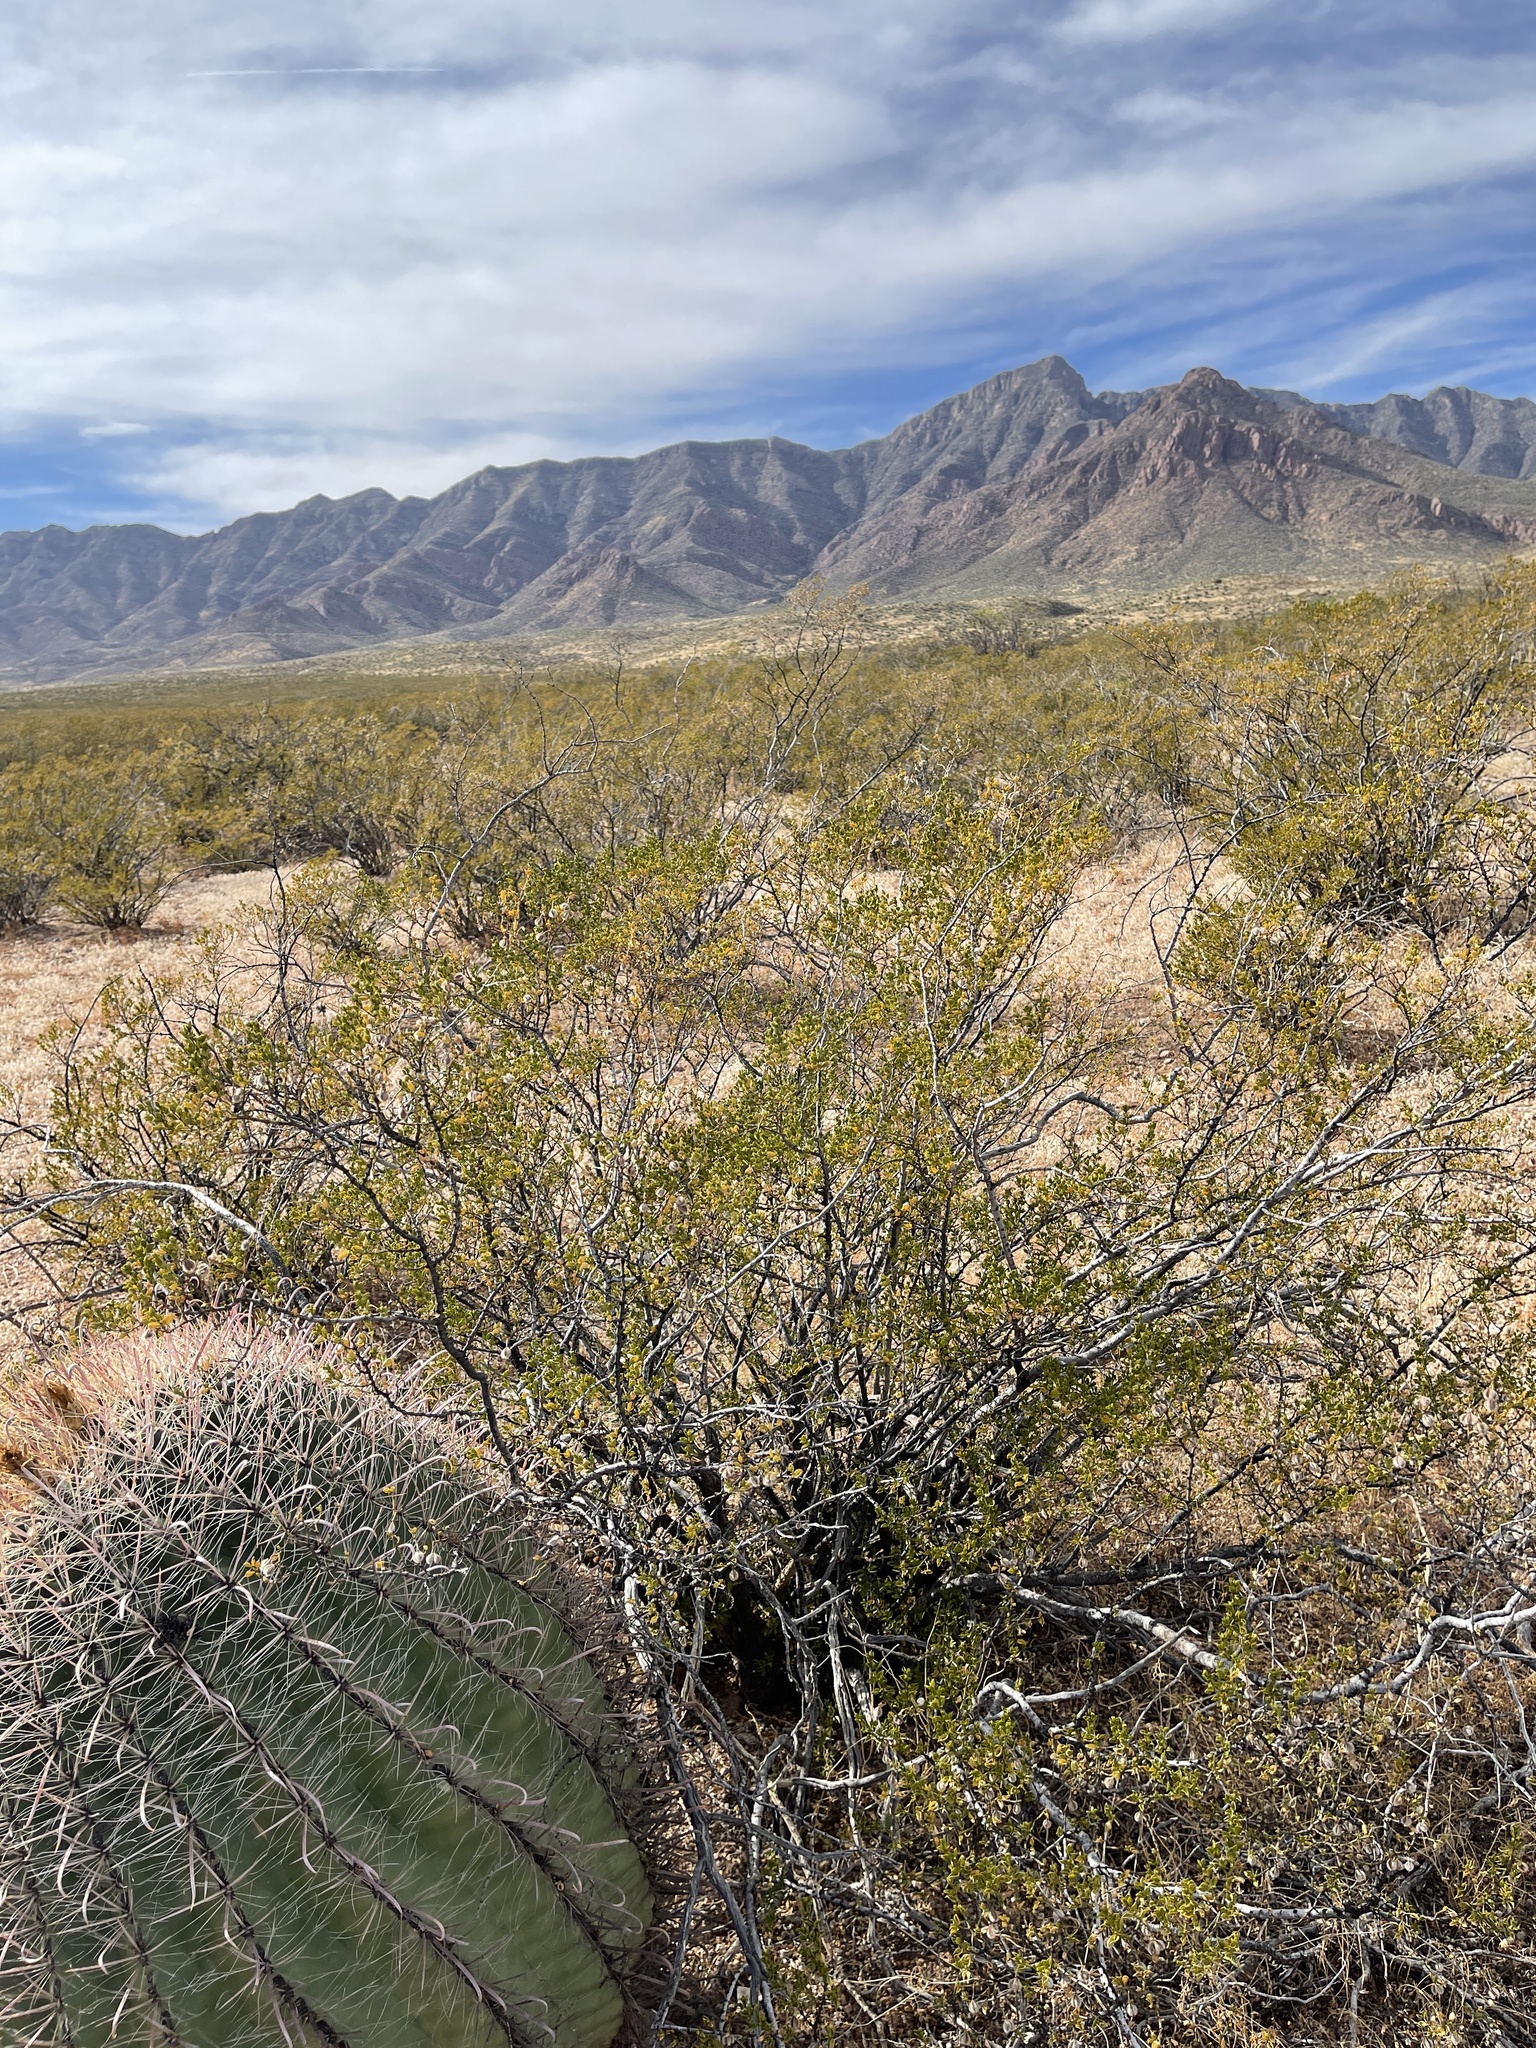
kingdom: Plantae
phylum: Tracheophyta
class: Magnoliopsida
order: Zygophyllales
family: Zygophyllaceae
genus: Larrea
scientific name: Larrea tridentata
